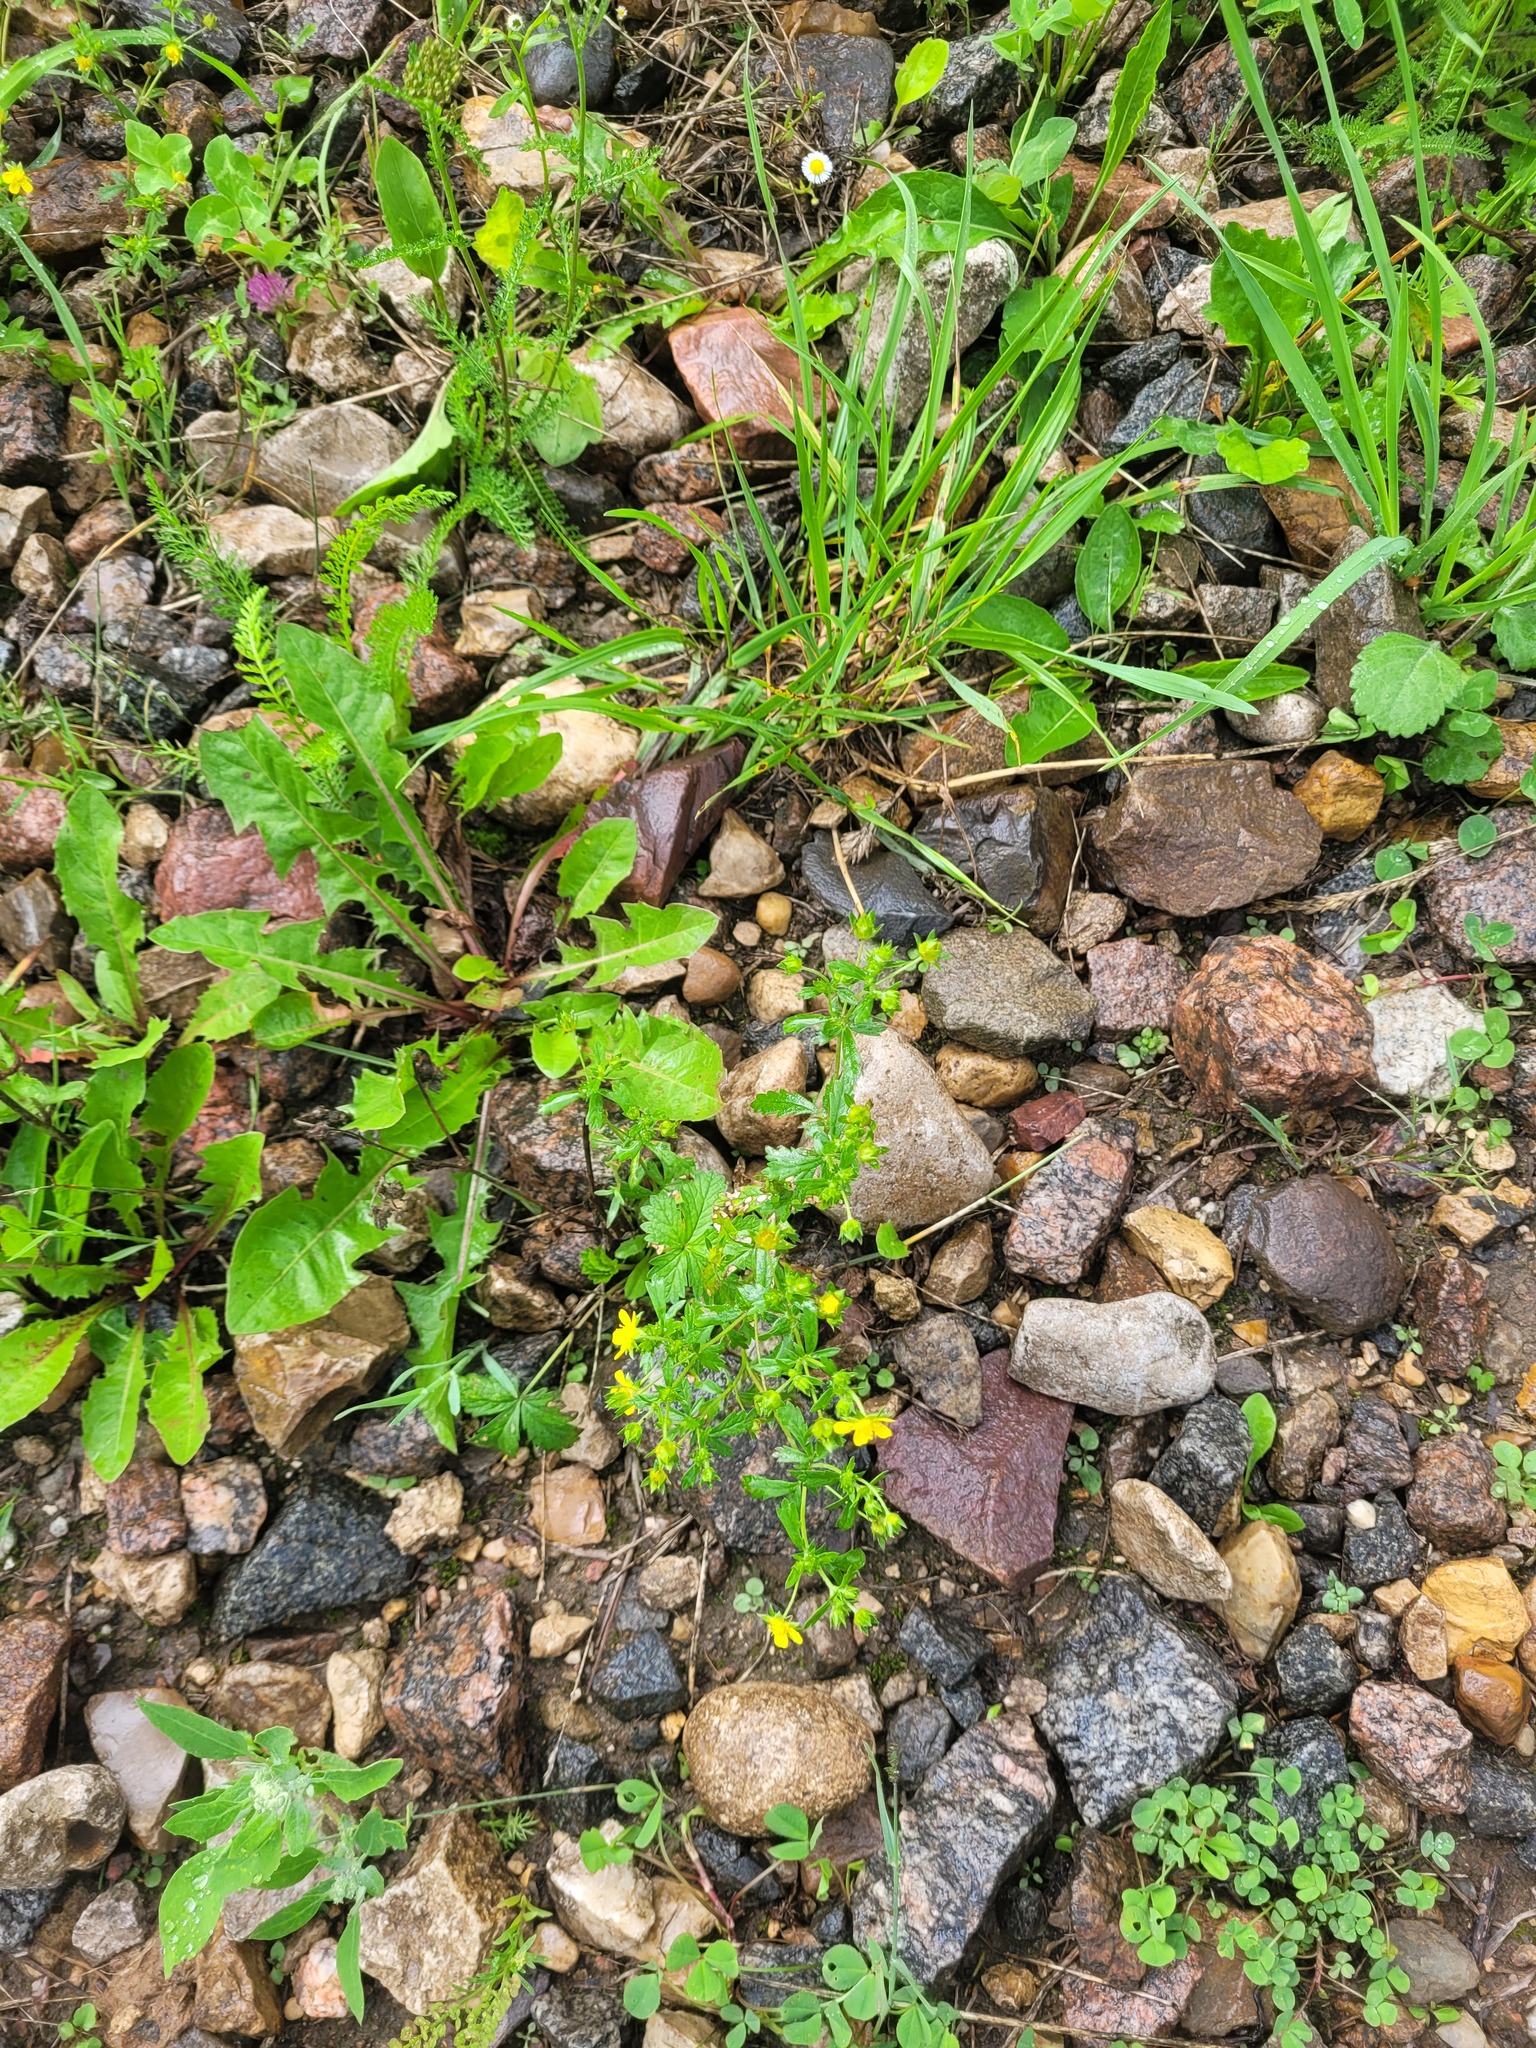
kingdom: Plantae
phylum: Tracheophyta
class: Magnoliopsida
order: Rosales
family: Rosaceae
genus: Potentilla
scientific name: Potentilla intermedia
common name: Downy cinquefoil
